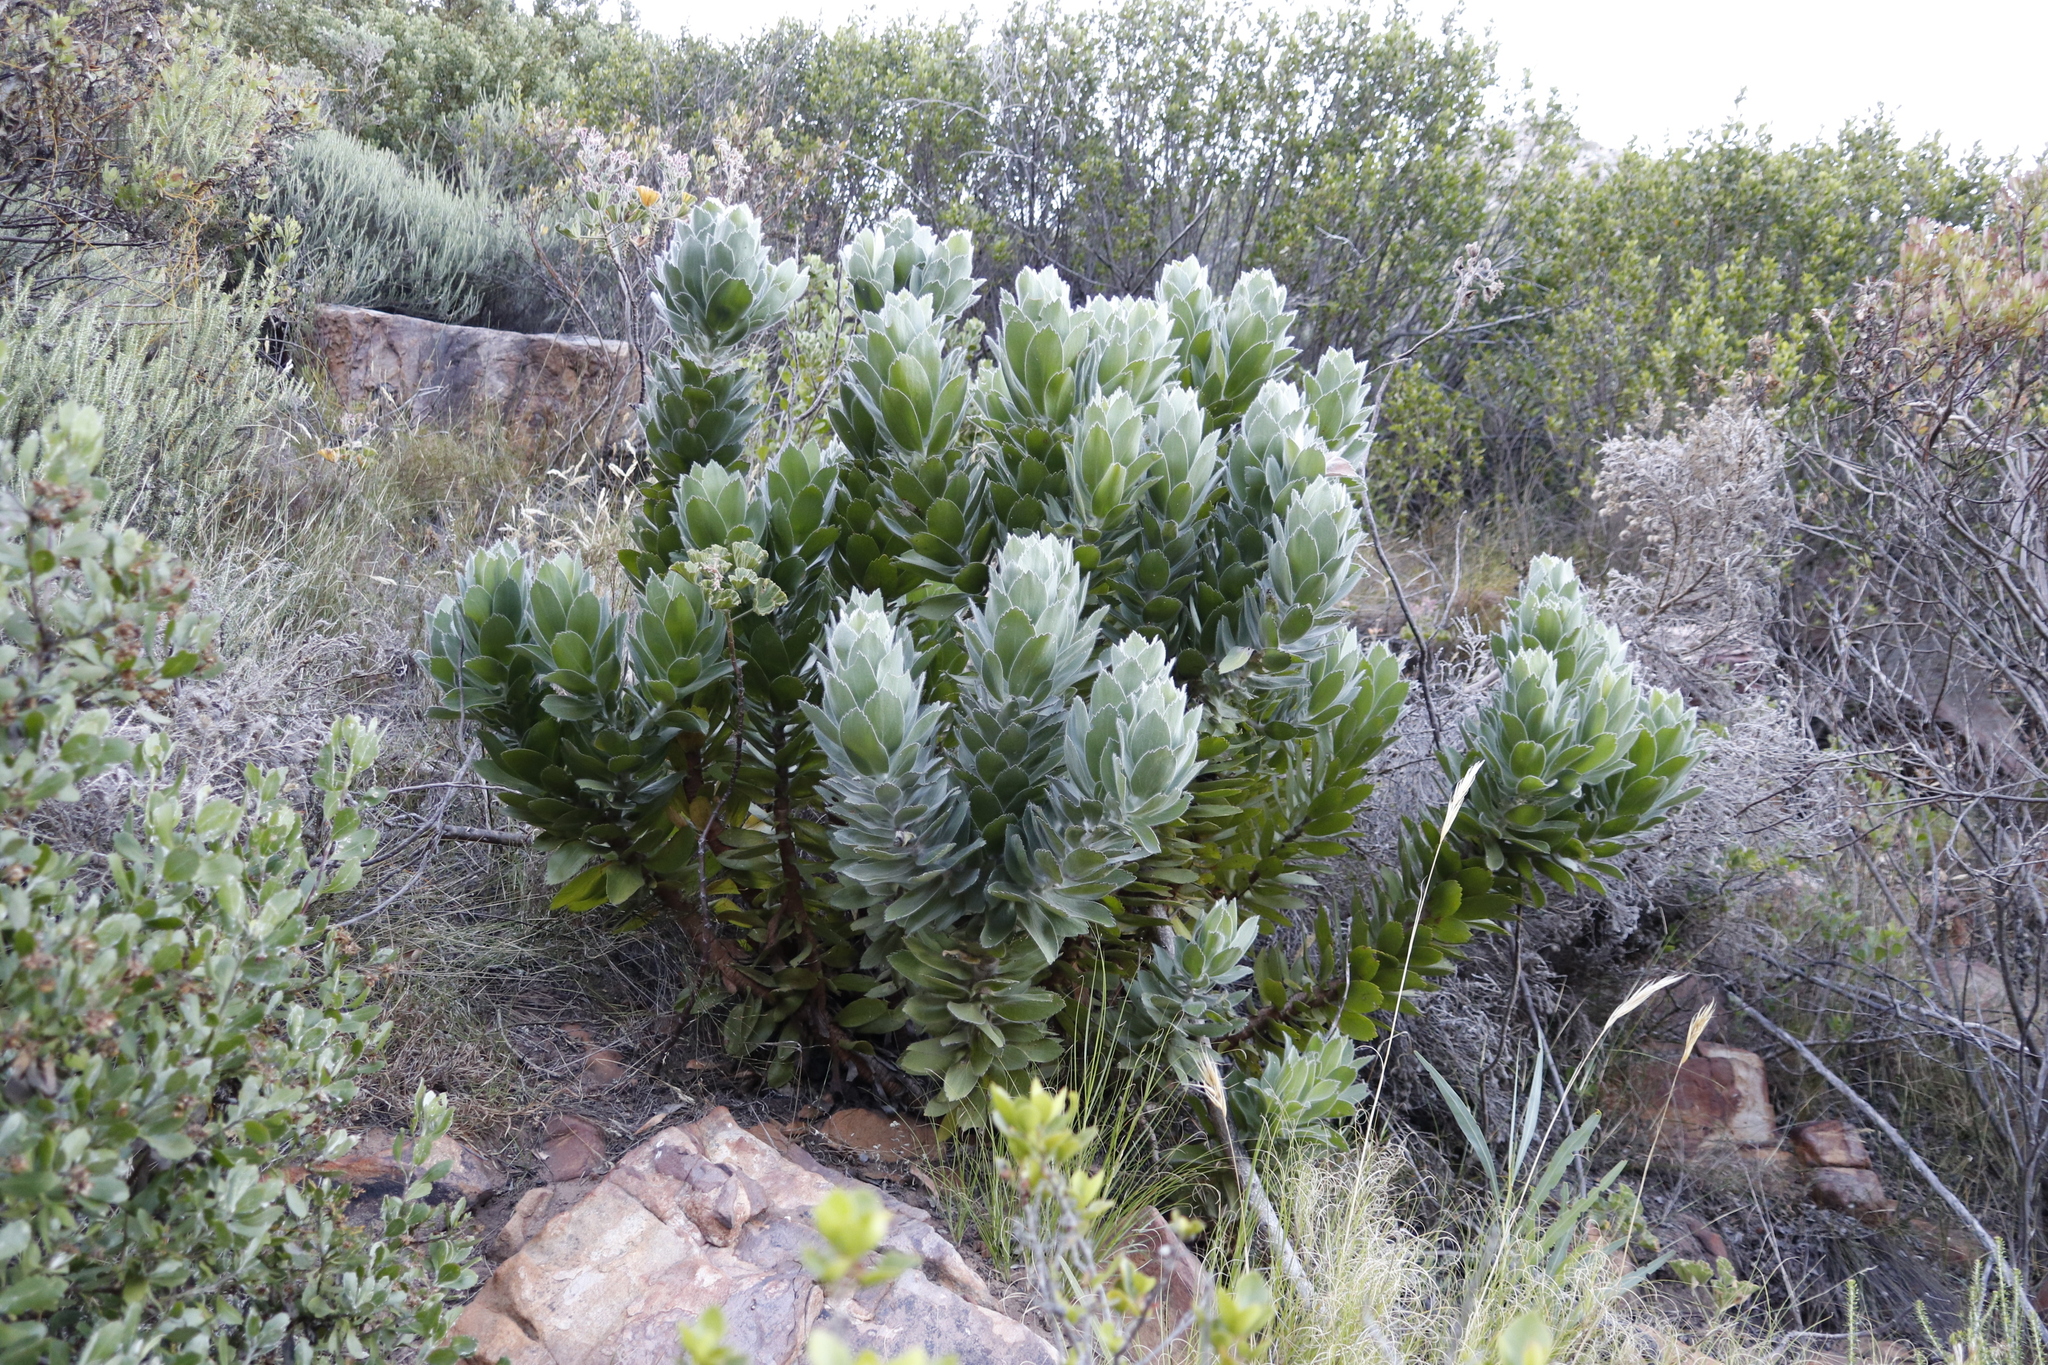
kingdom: Plantae
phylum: Tracheophyta
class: Magnoliopsida
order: Proteales
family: Proteaceae
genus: Leucospermum
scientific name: Leucospermum conocarpodendron
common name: Tree pincushion
